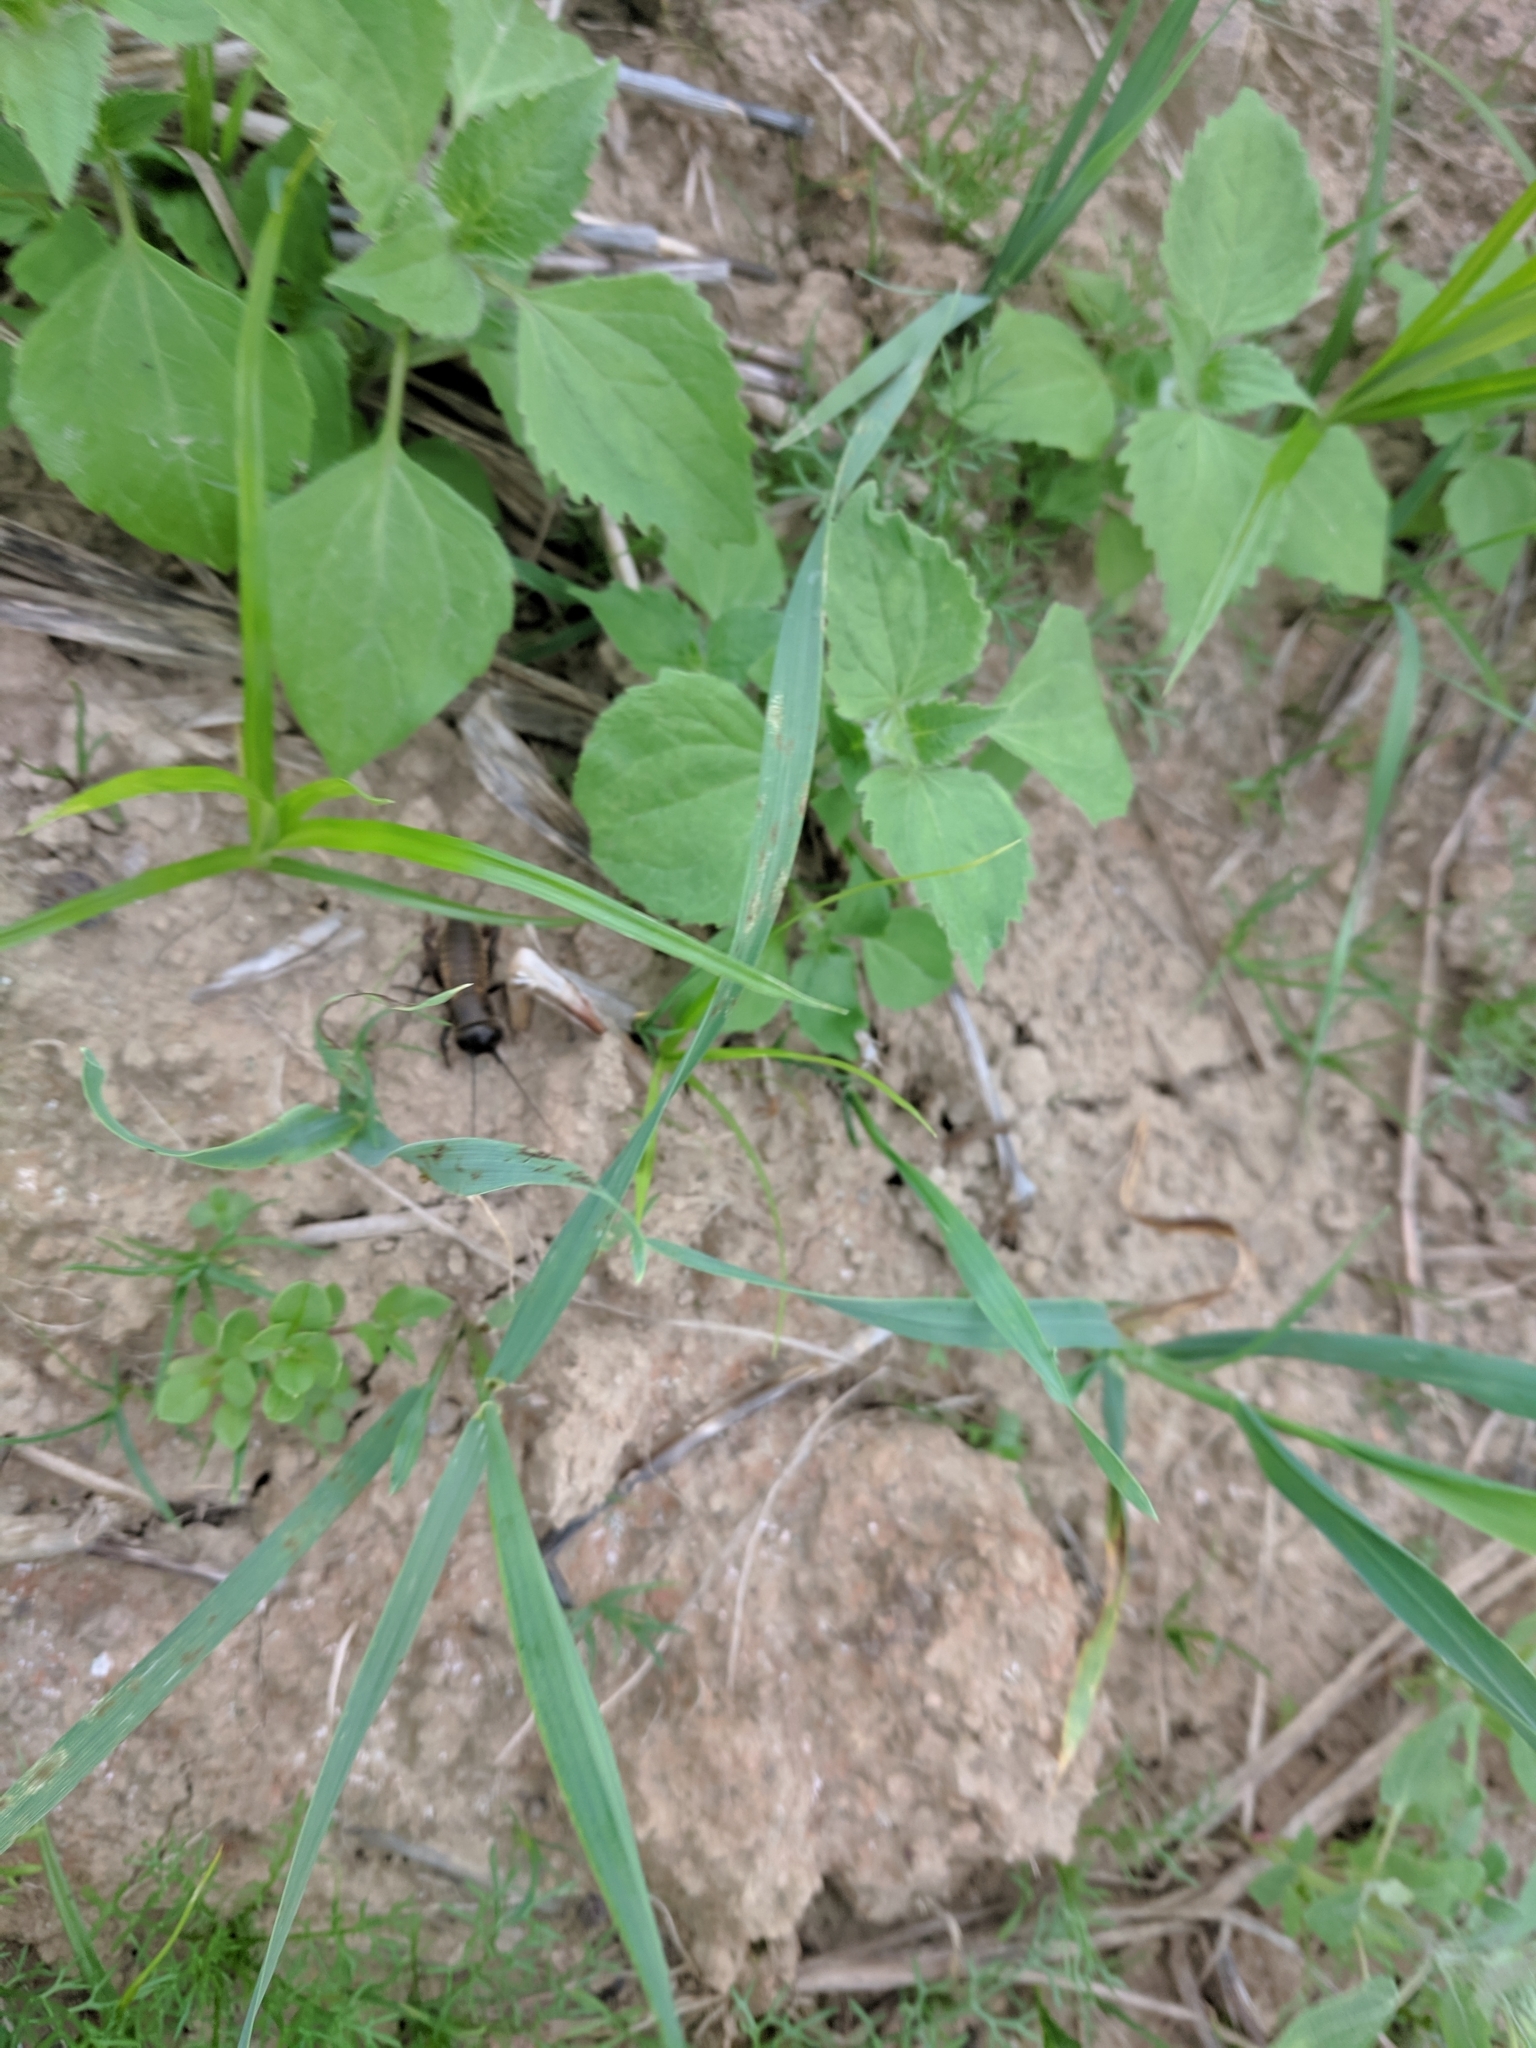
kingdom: Animalia
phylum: Arthropoda
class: Insecta
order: Orthoptera
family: Gryllidae
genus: Gryllus
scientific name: Gryllus campestris
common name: Field cricket
